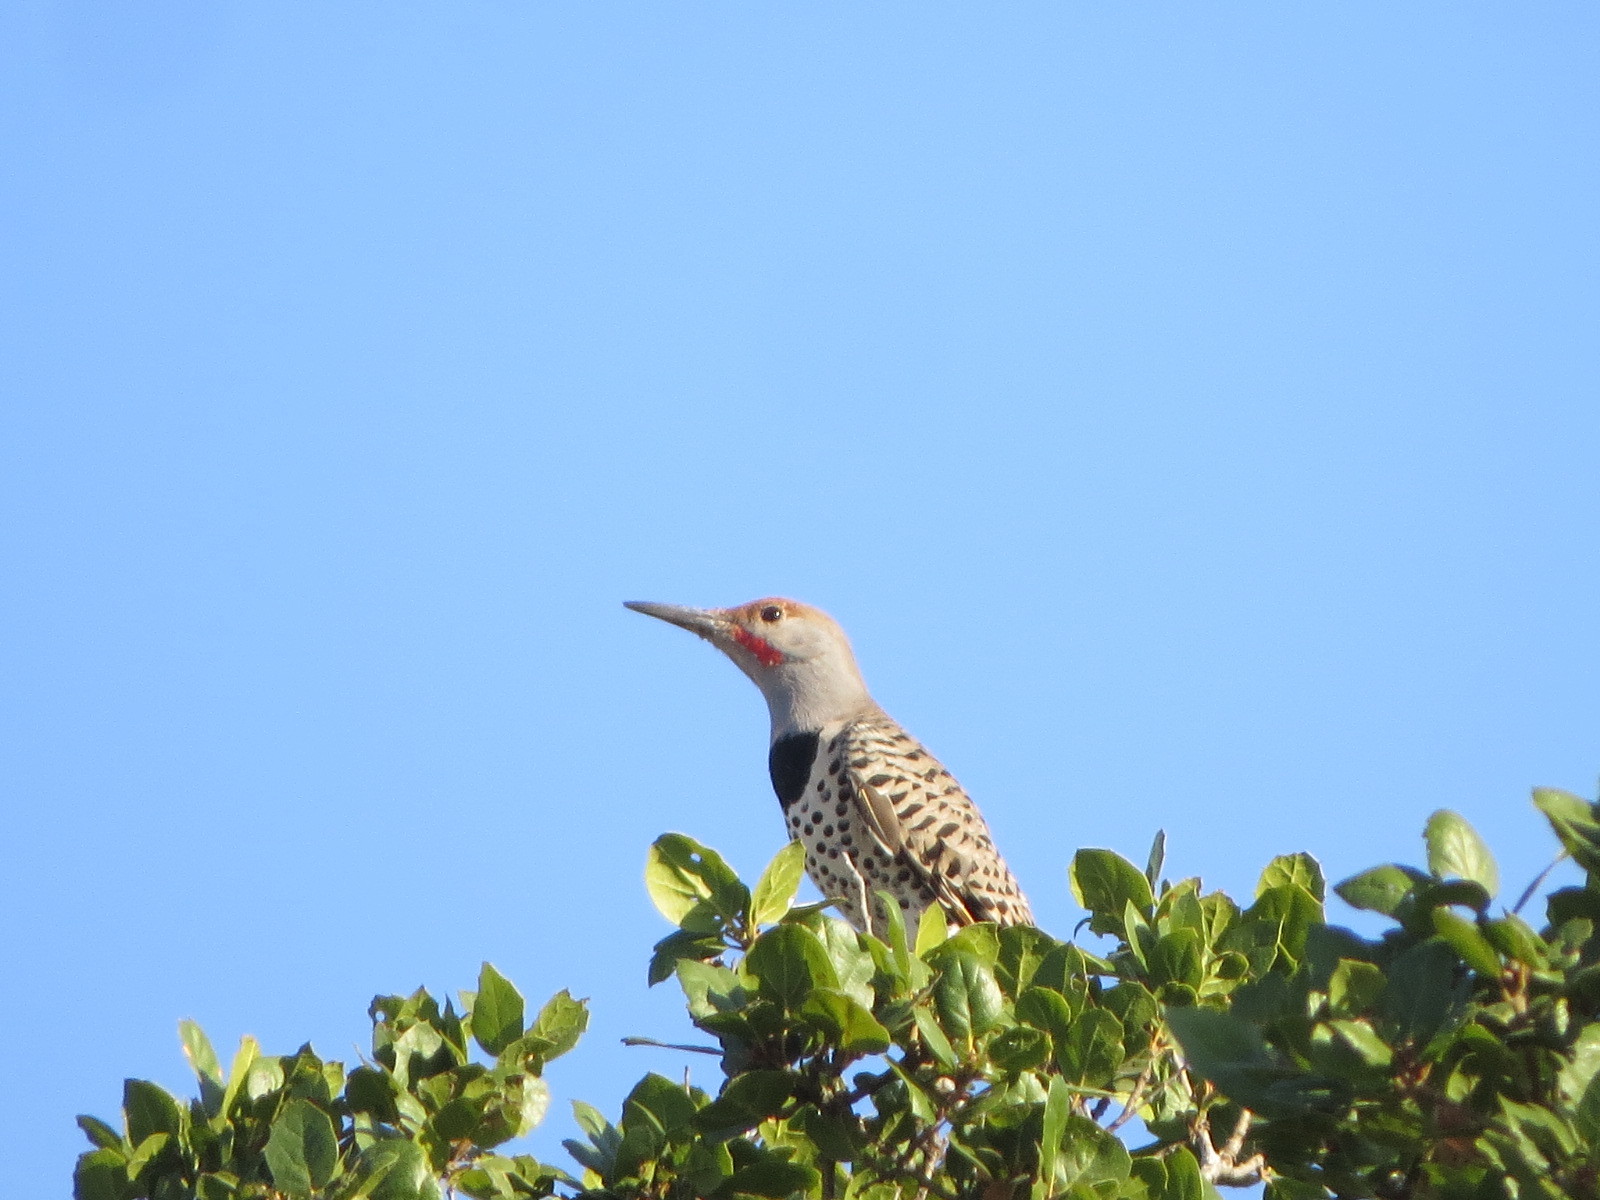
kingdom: Animalia
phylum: Chordata
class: Aves
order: Piciformes
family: Picidae
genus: Colaptes
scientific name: Colaptes auratus
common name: Northern flicker
